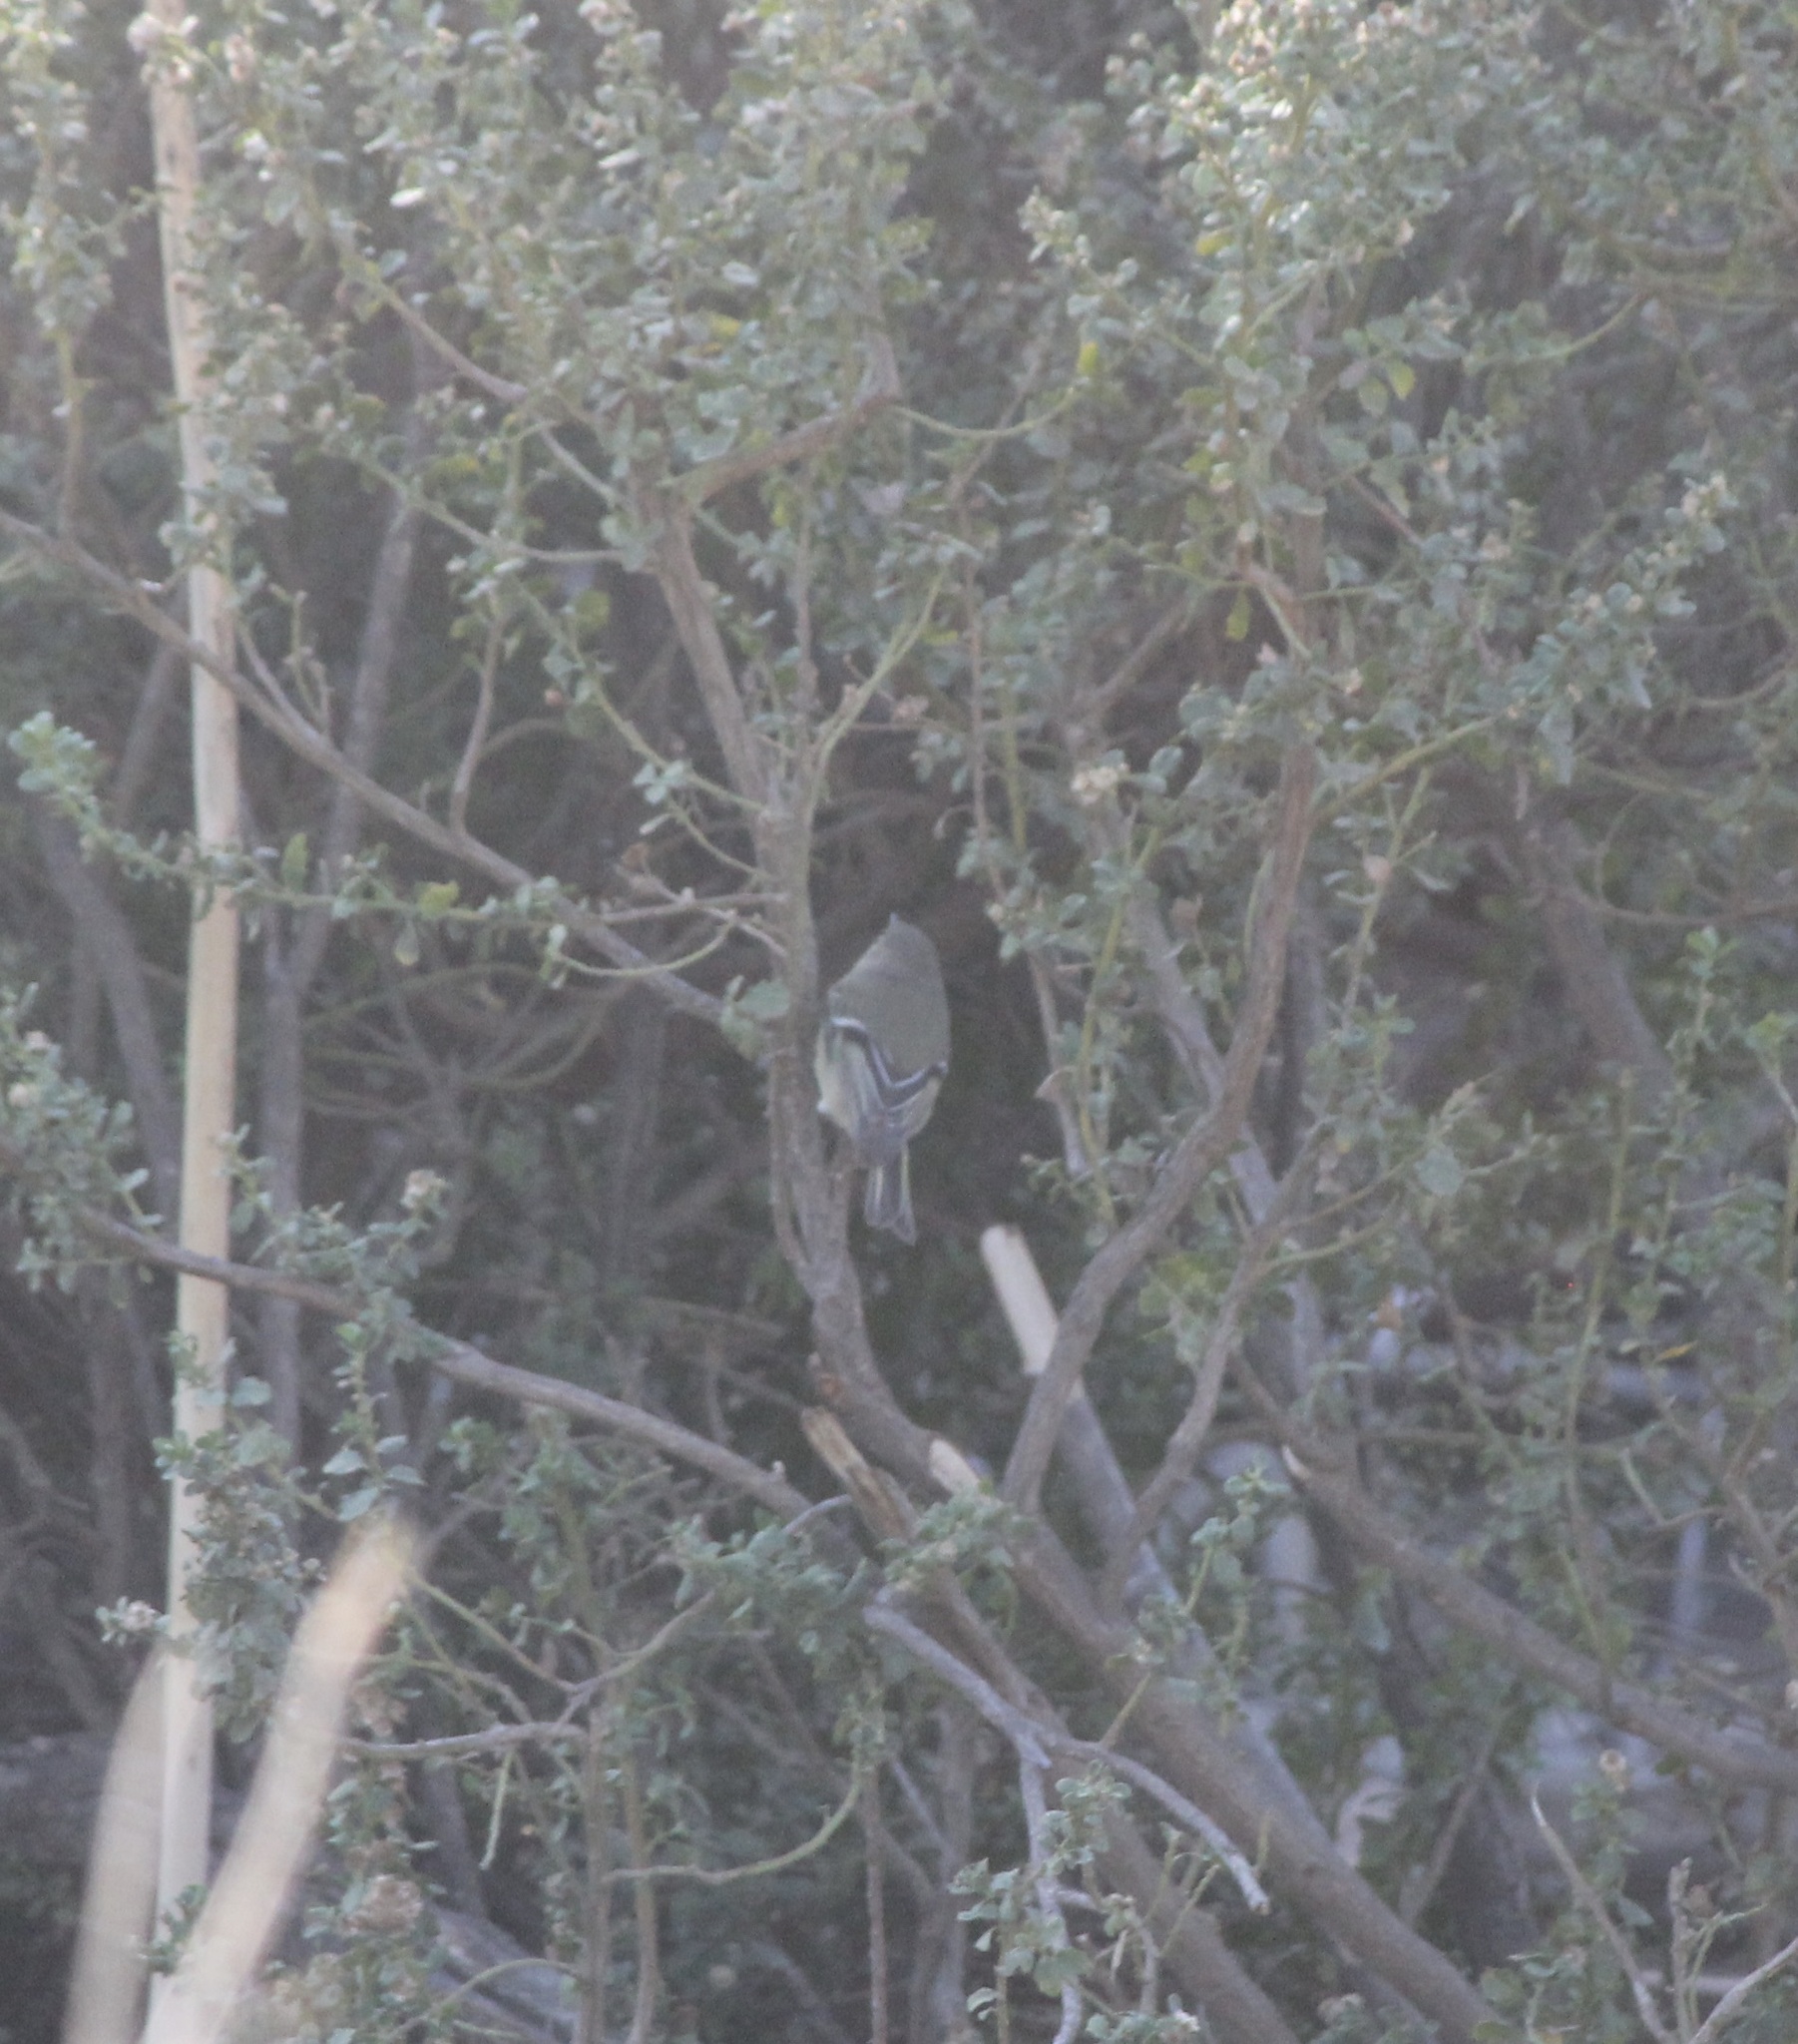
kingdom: Animalia
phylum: Chordata
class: Aves
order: Passeriformes
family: Regulidae
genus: Regulus
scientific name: Regulus calendula
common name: Ruby-crowned kinglet
